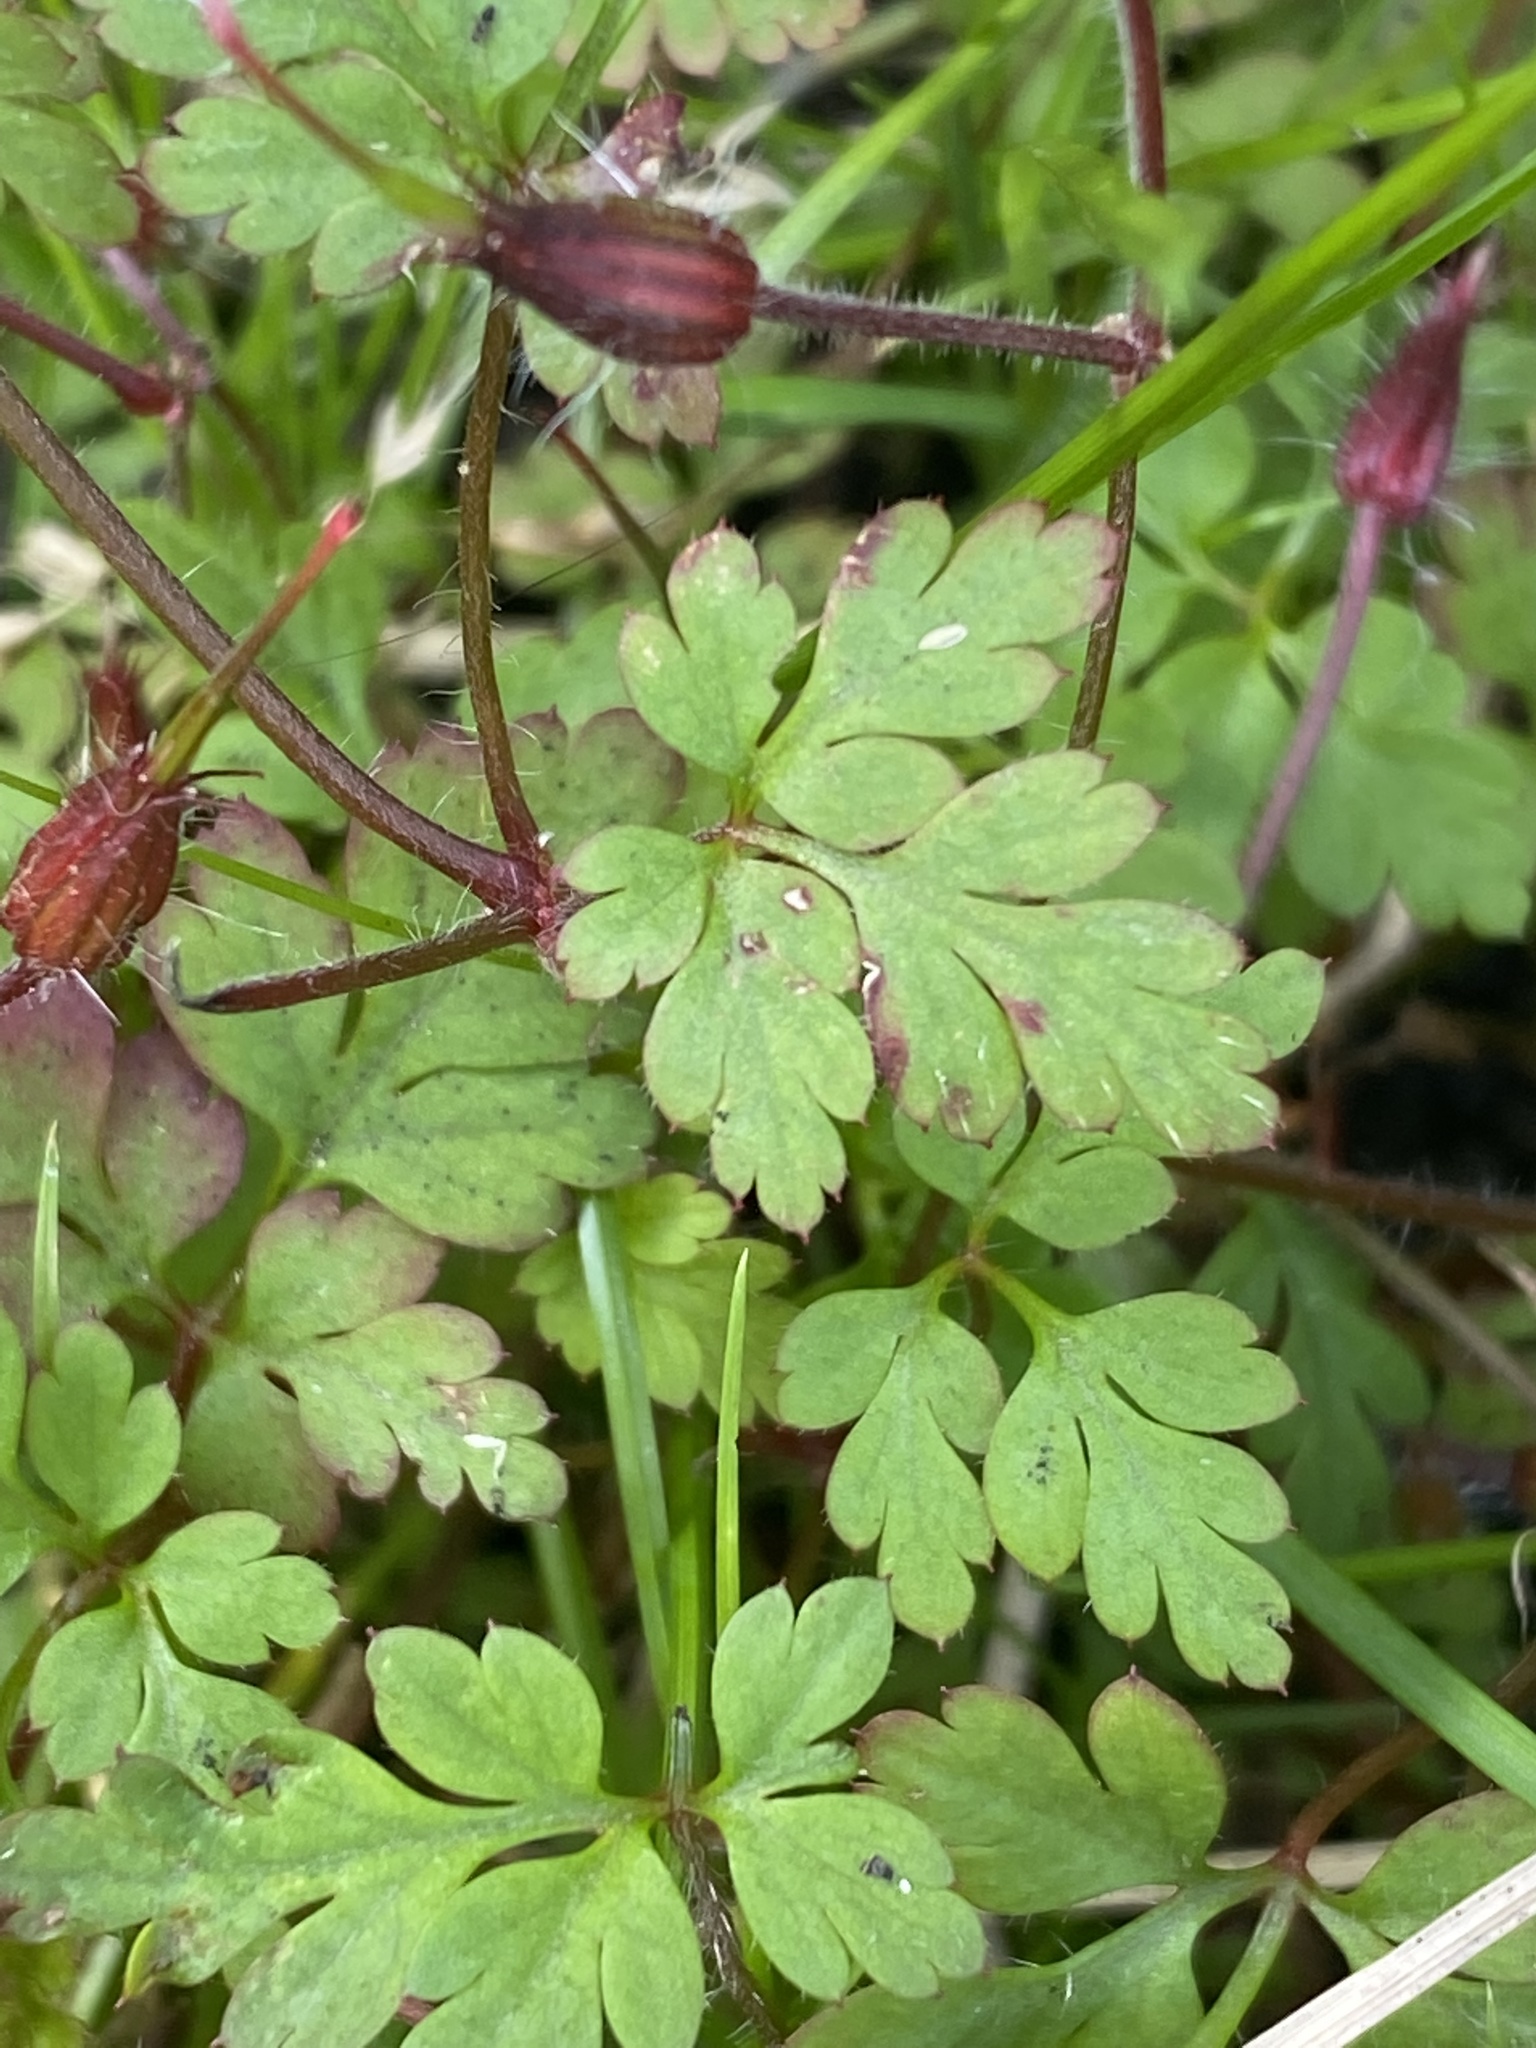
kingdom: Plantae
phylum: Tracheophyta
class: Magnoliopsida
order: Geraniales
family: Geraniaceae
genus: Geranium
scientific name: Geranium robertianum
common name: Herb-robert
